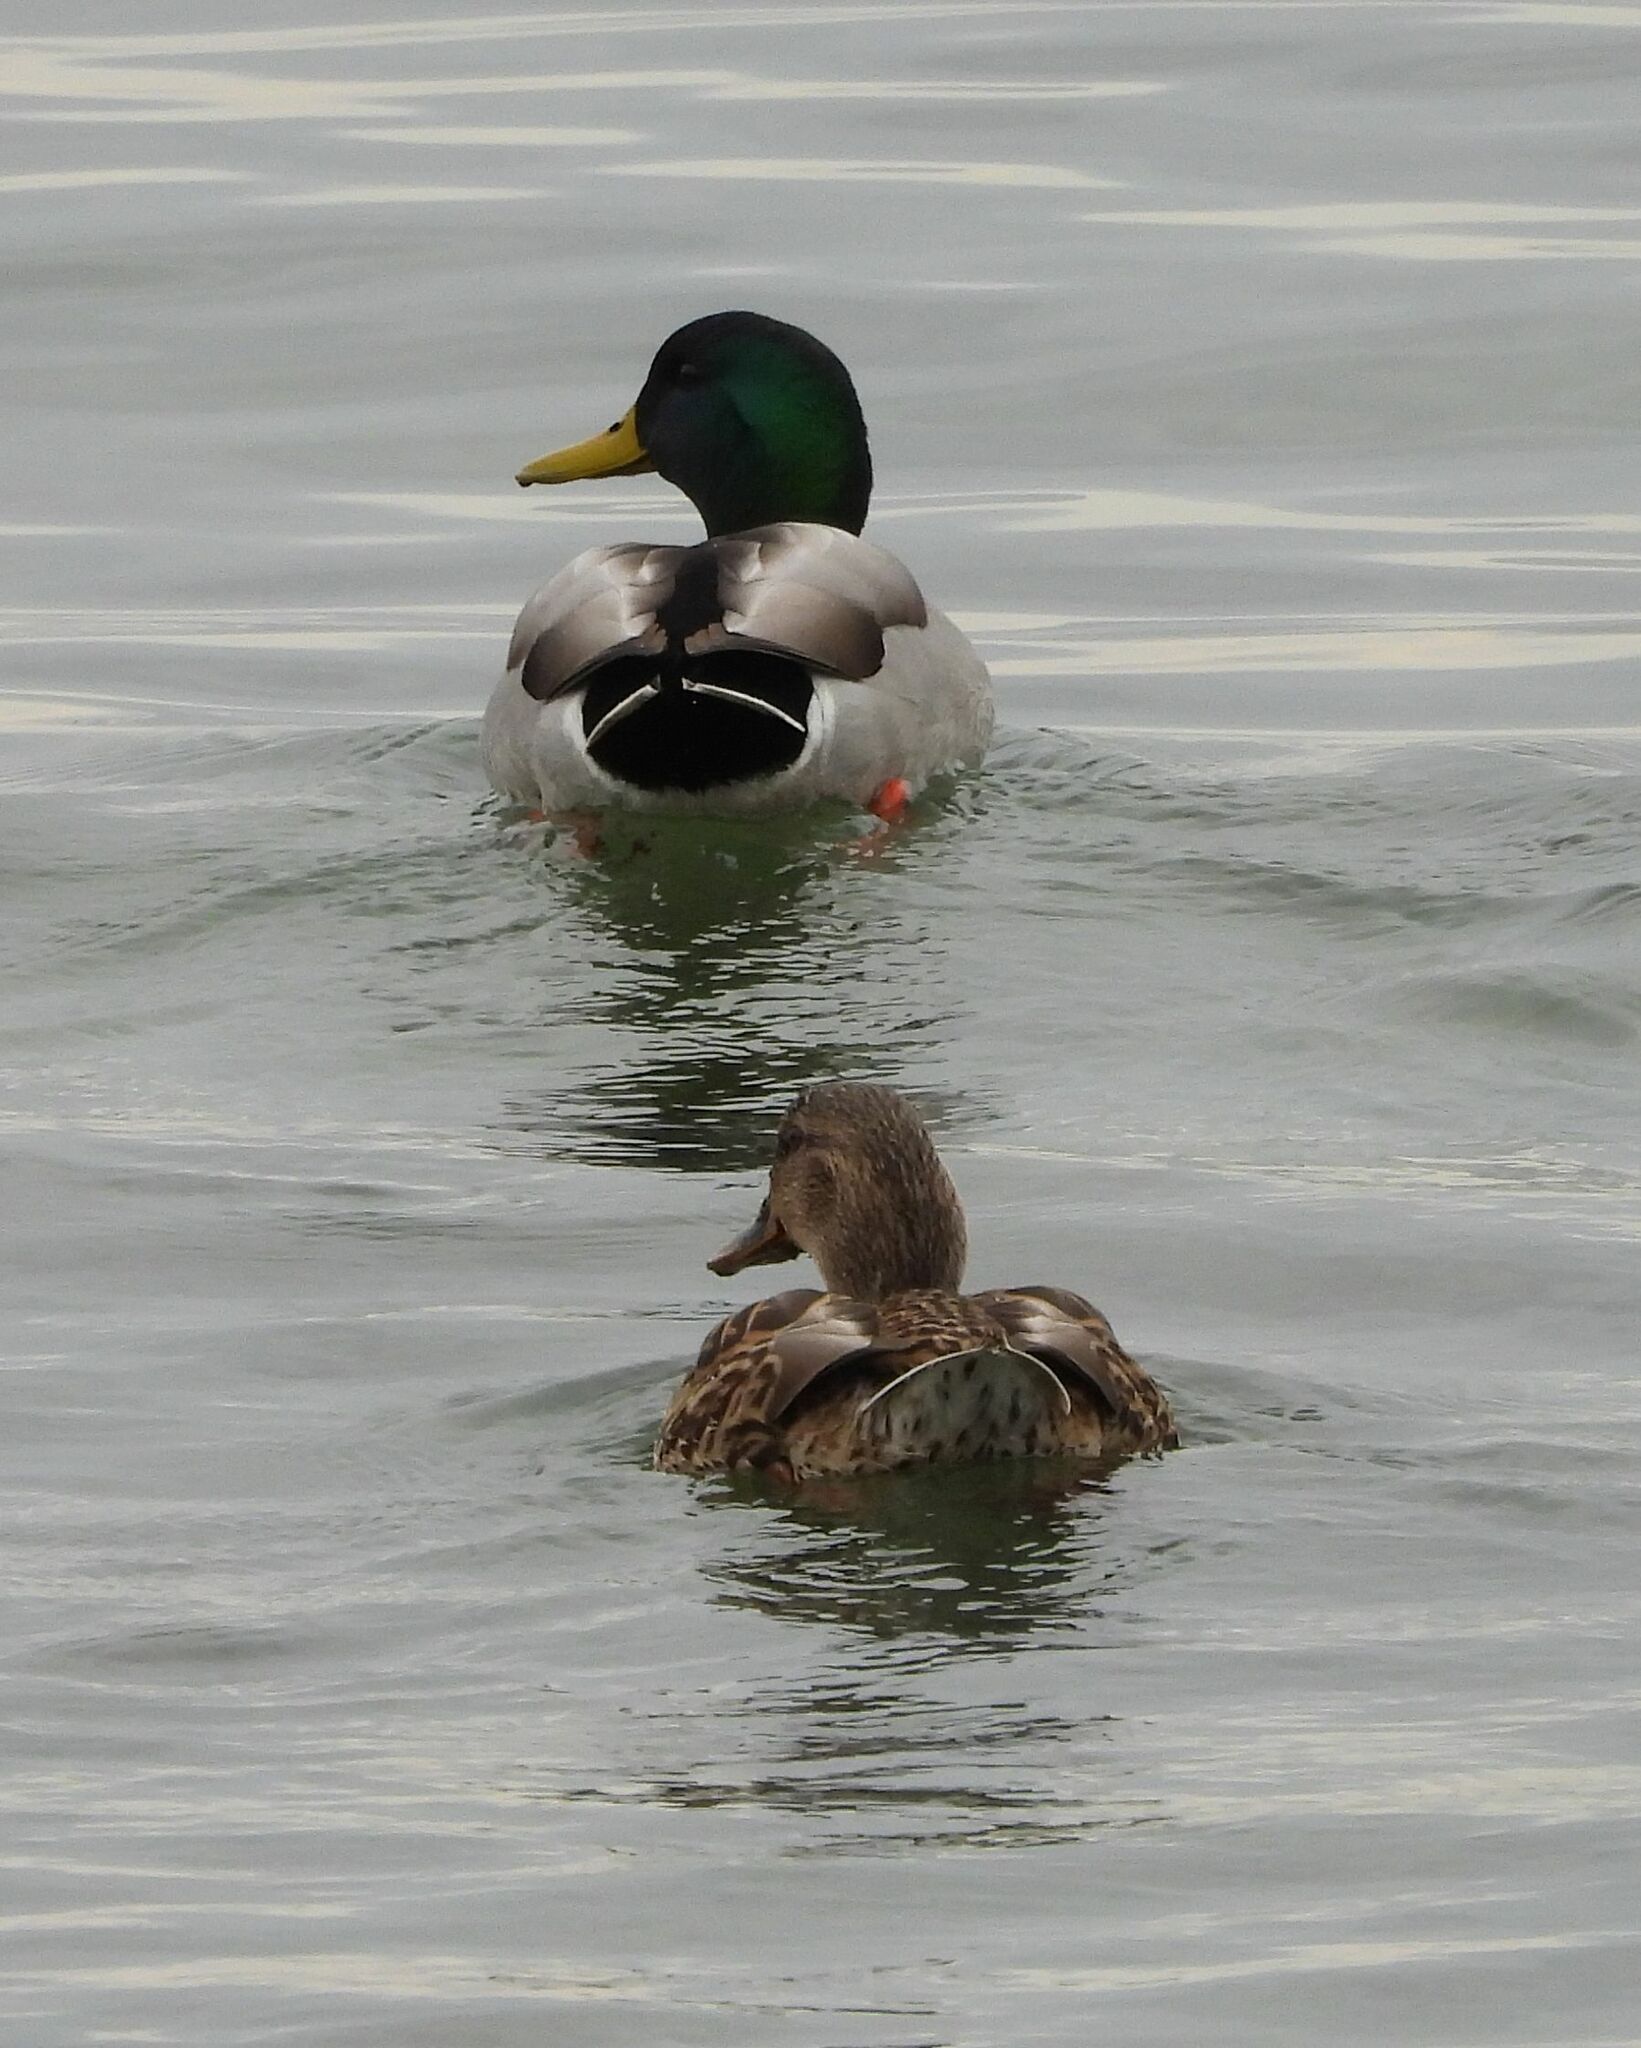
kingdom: Animalia
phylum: Chordata
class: Aves
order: Anseriformes
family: Anatidae
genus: Anas
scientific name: Anas platyrhynchos
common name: Mallard
